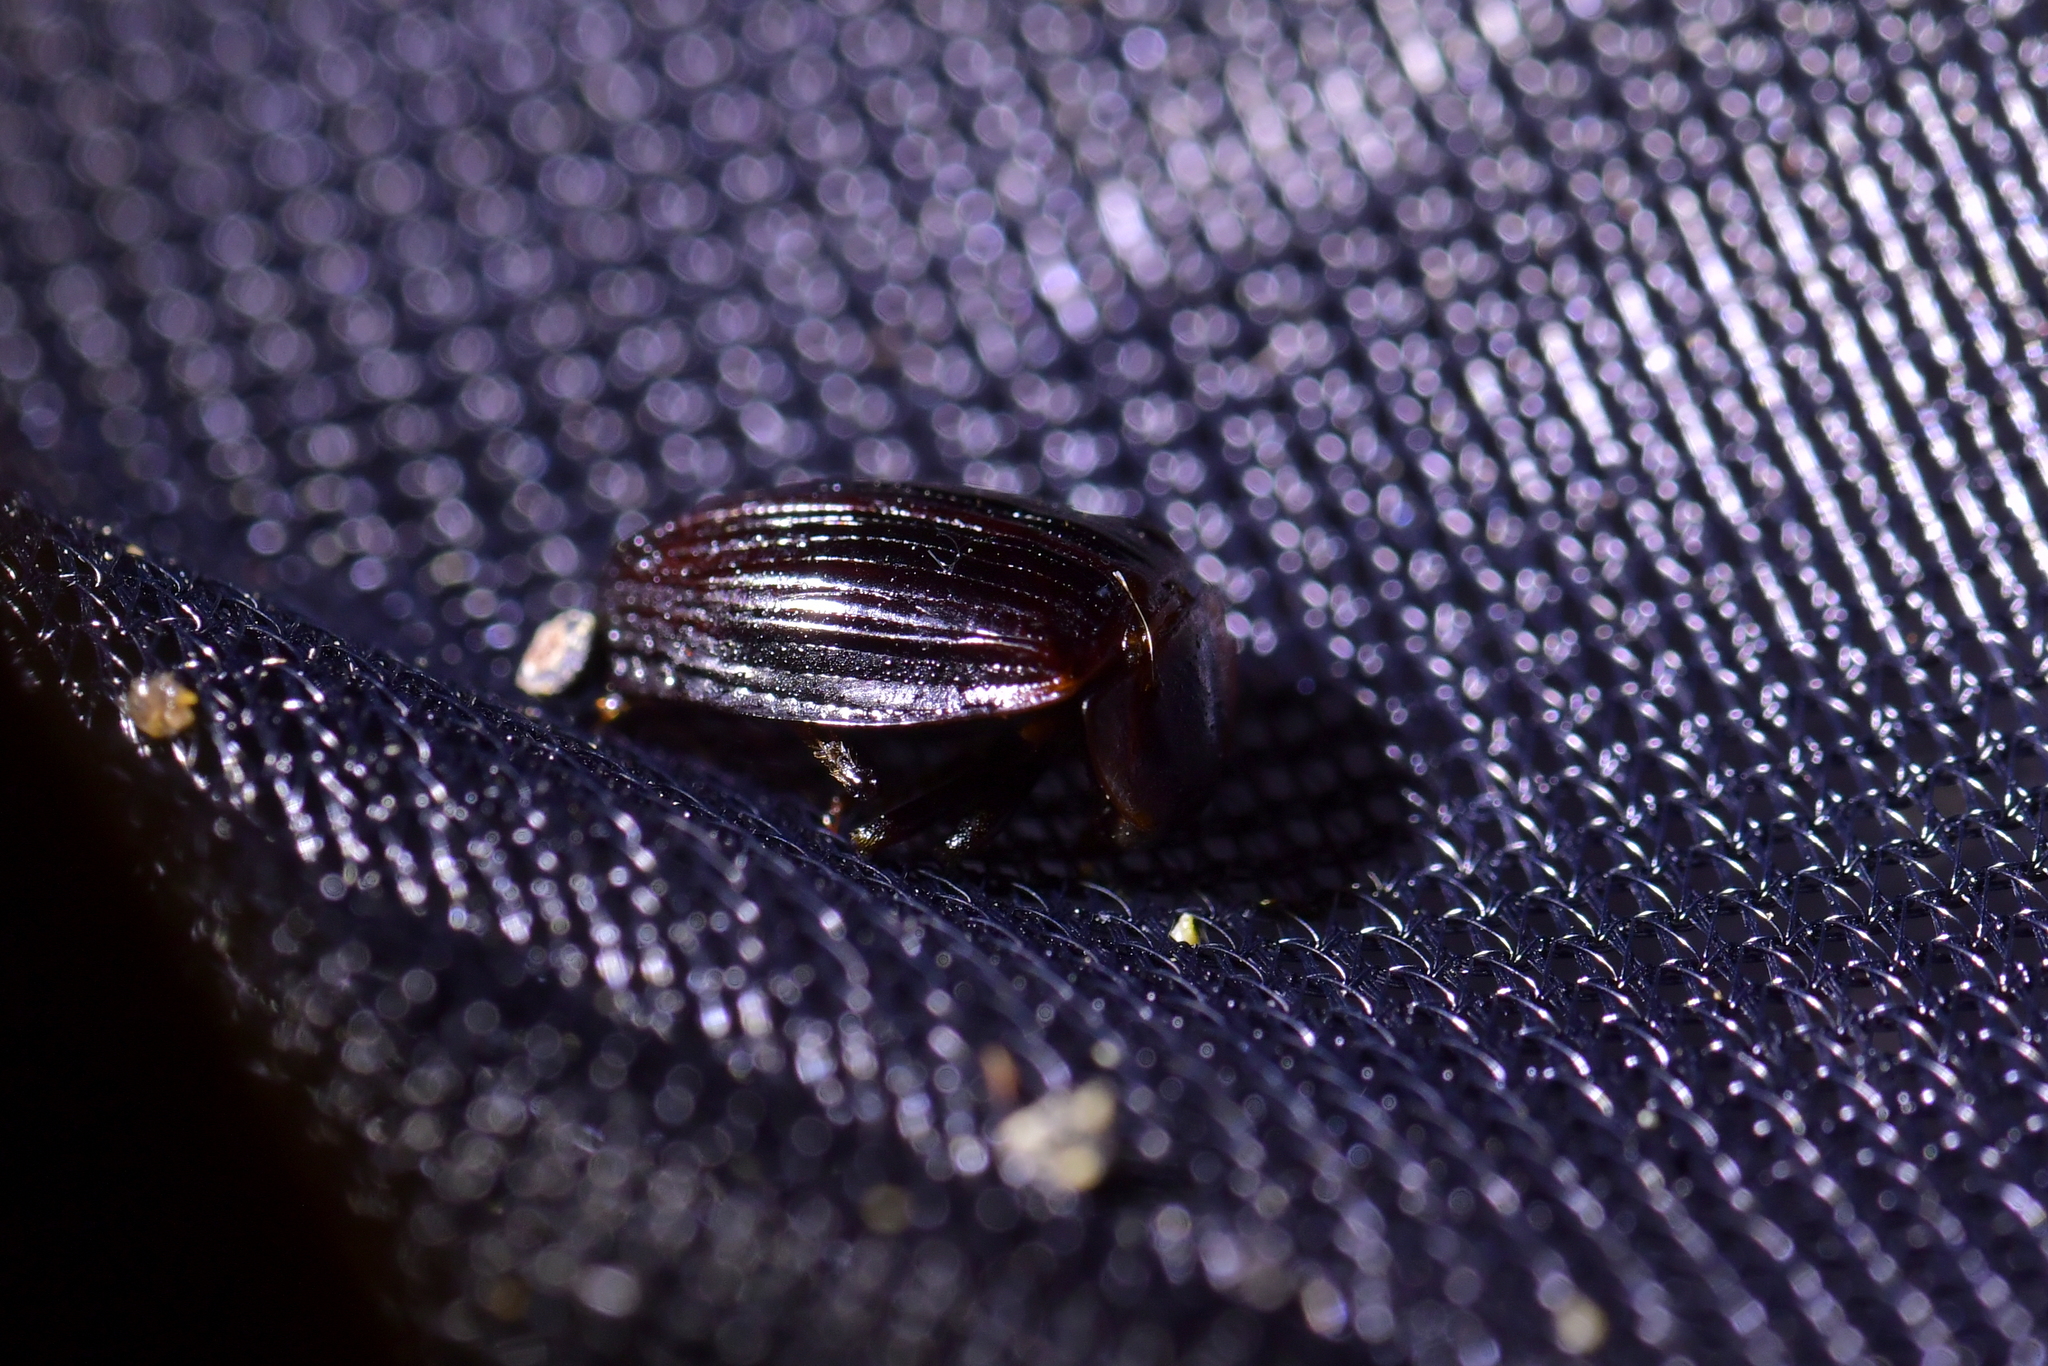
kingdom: Animalia
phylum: Arthropoda
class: Insecta
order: Coleoptera
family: Agyrtidae
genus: Zeanecrophilus
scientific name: Zeanecrophilus thayerae
